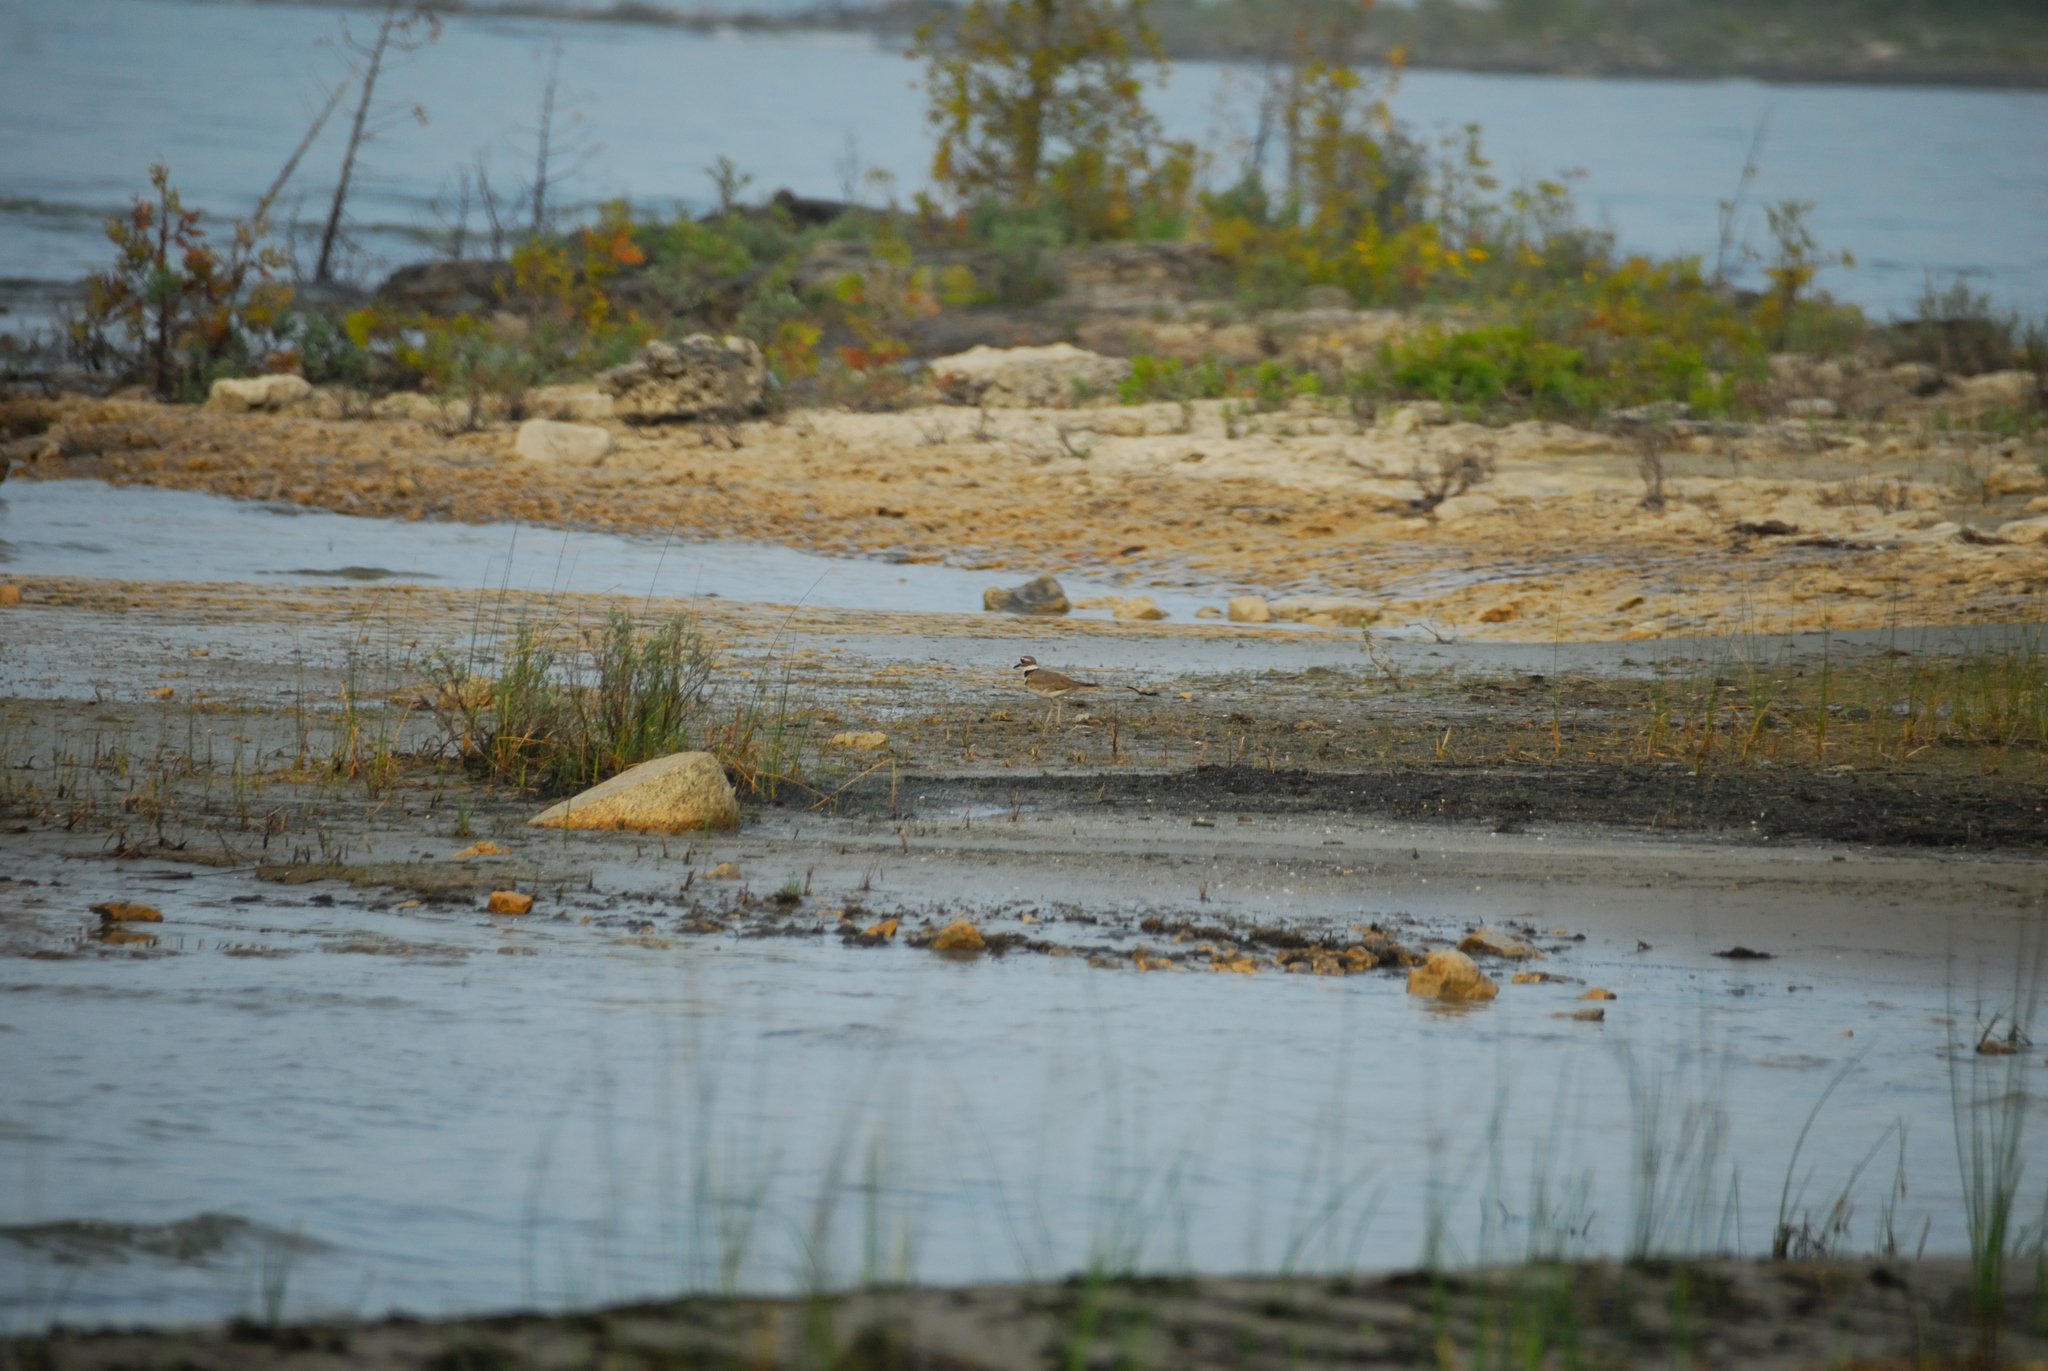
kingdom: Animalia
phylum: Chordata
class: Aves
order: Charadriiformes
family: Charadriidae
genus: Charadrius
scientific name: Charadrius vociferus
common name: Killdeer
